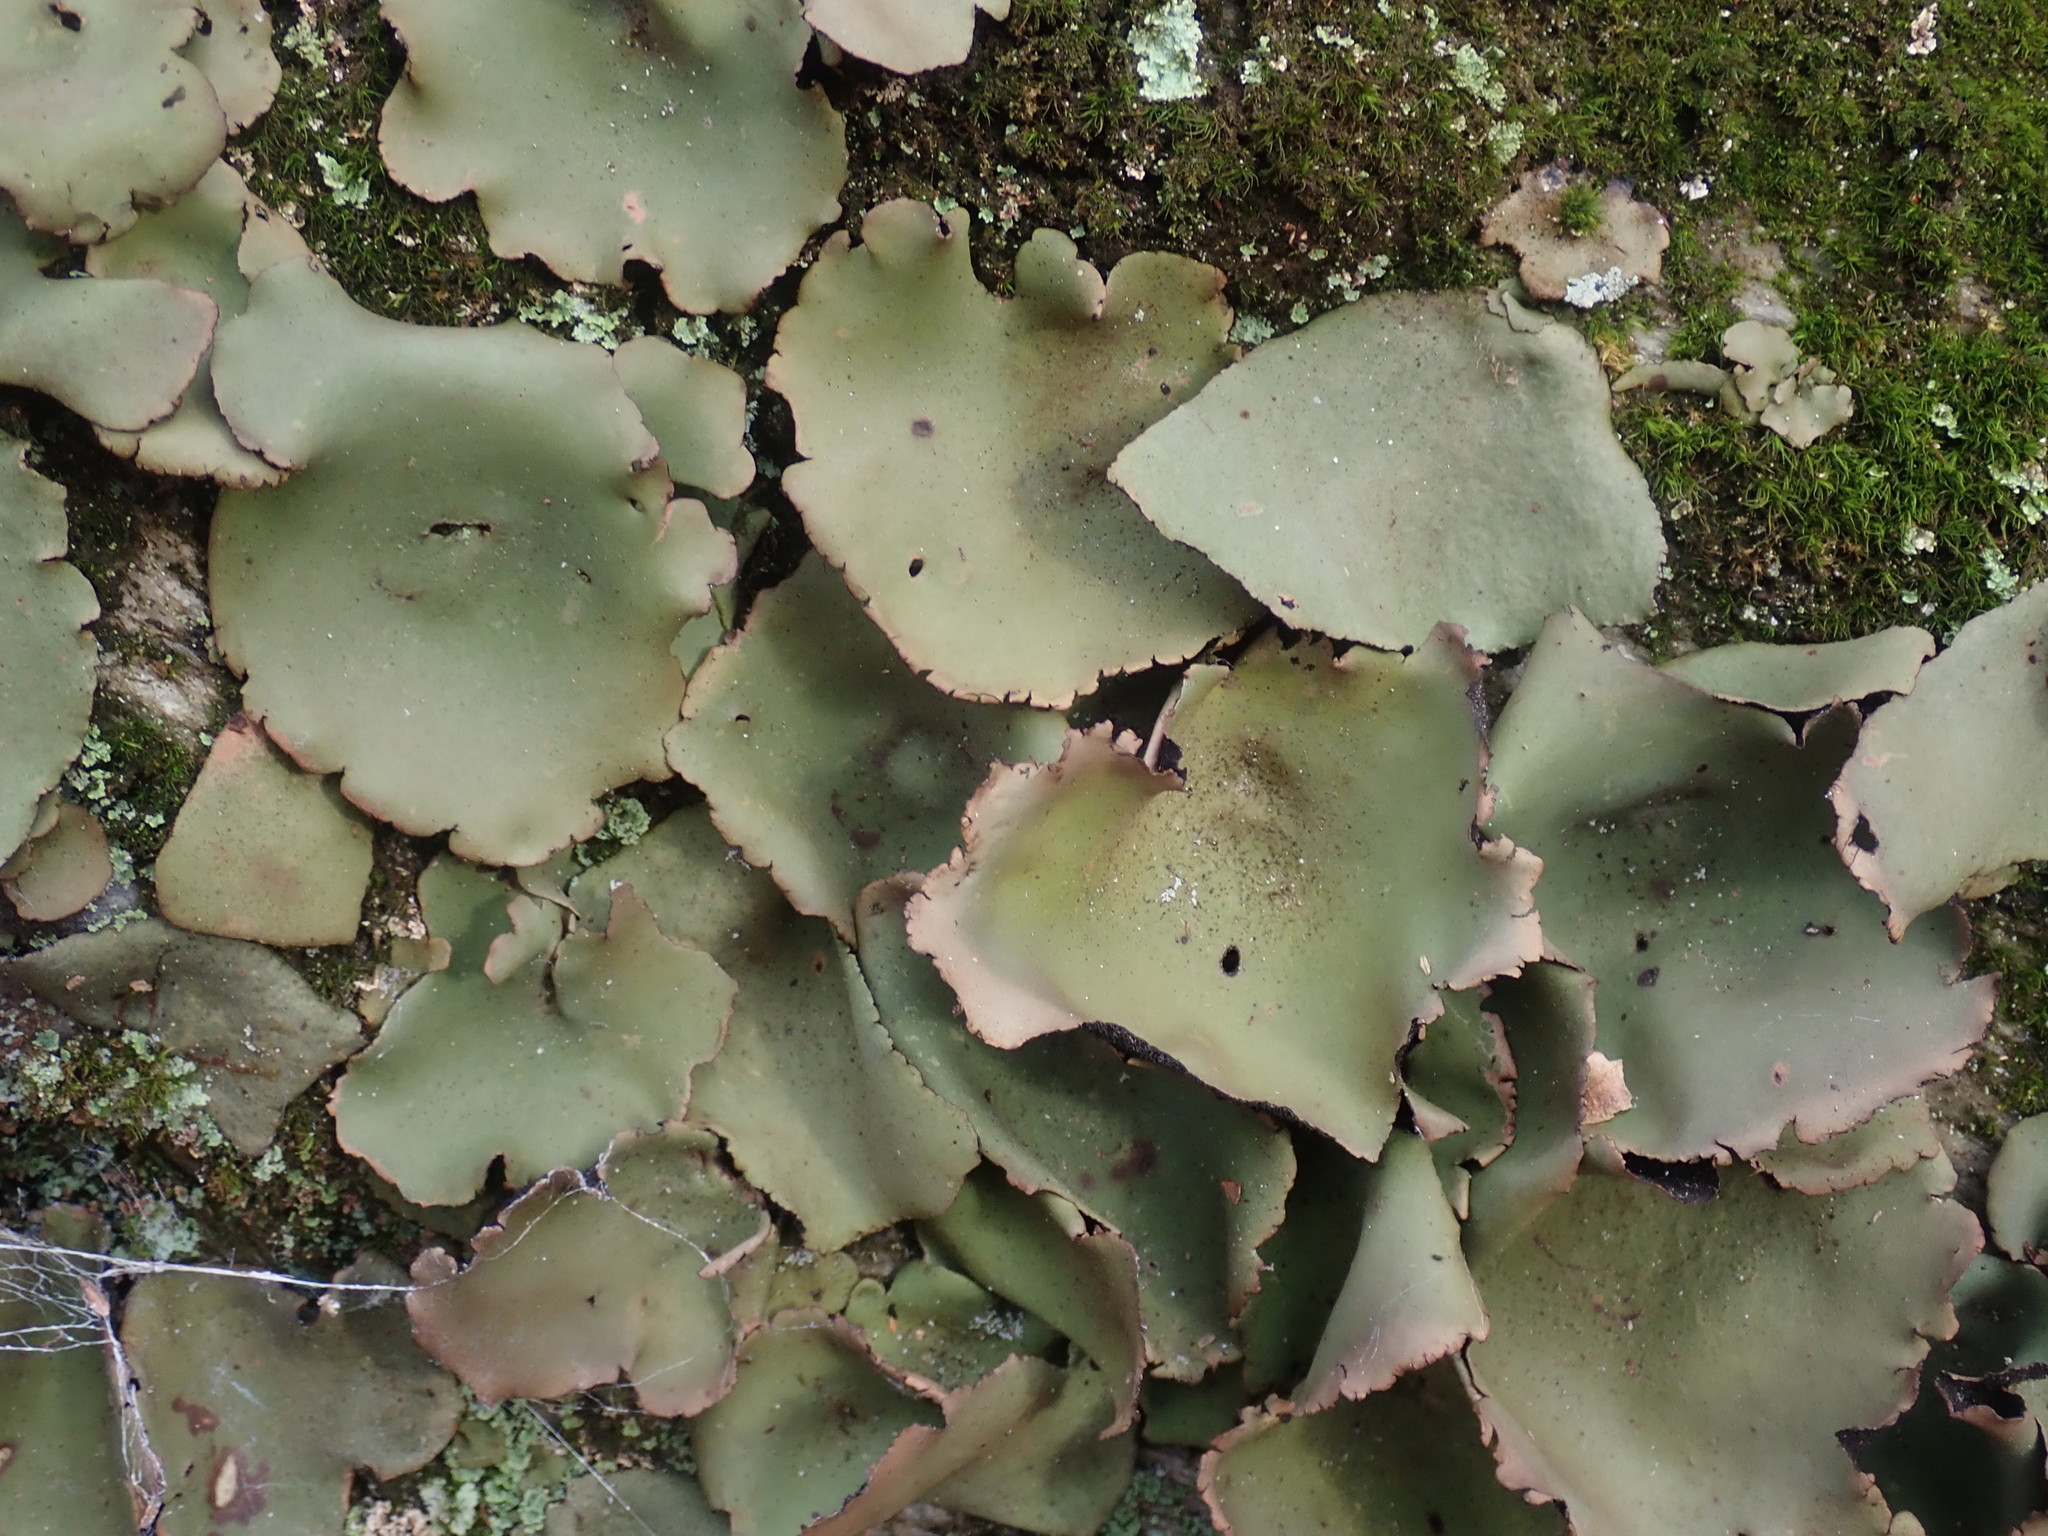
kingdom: Fungi
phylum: Ascomycota
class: Lecanoromycetes
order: Umbilicariales
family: Umbilicariaceae
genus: Umbilicaria
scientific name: Umbilicaria mammulata
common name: Smooth rock tripe
